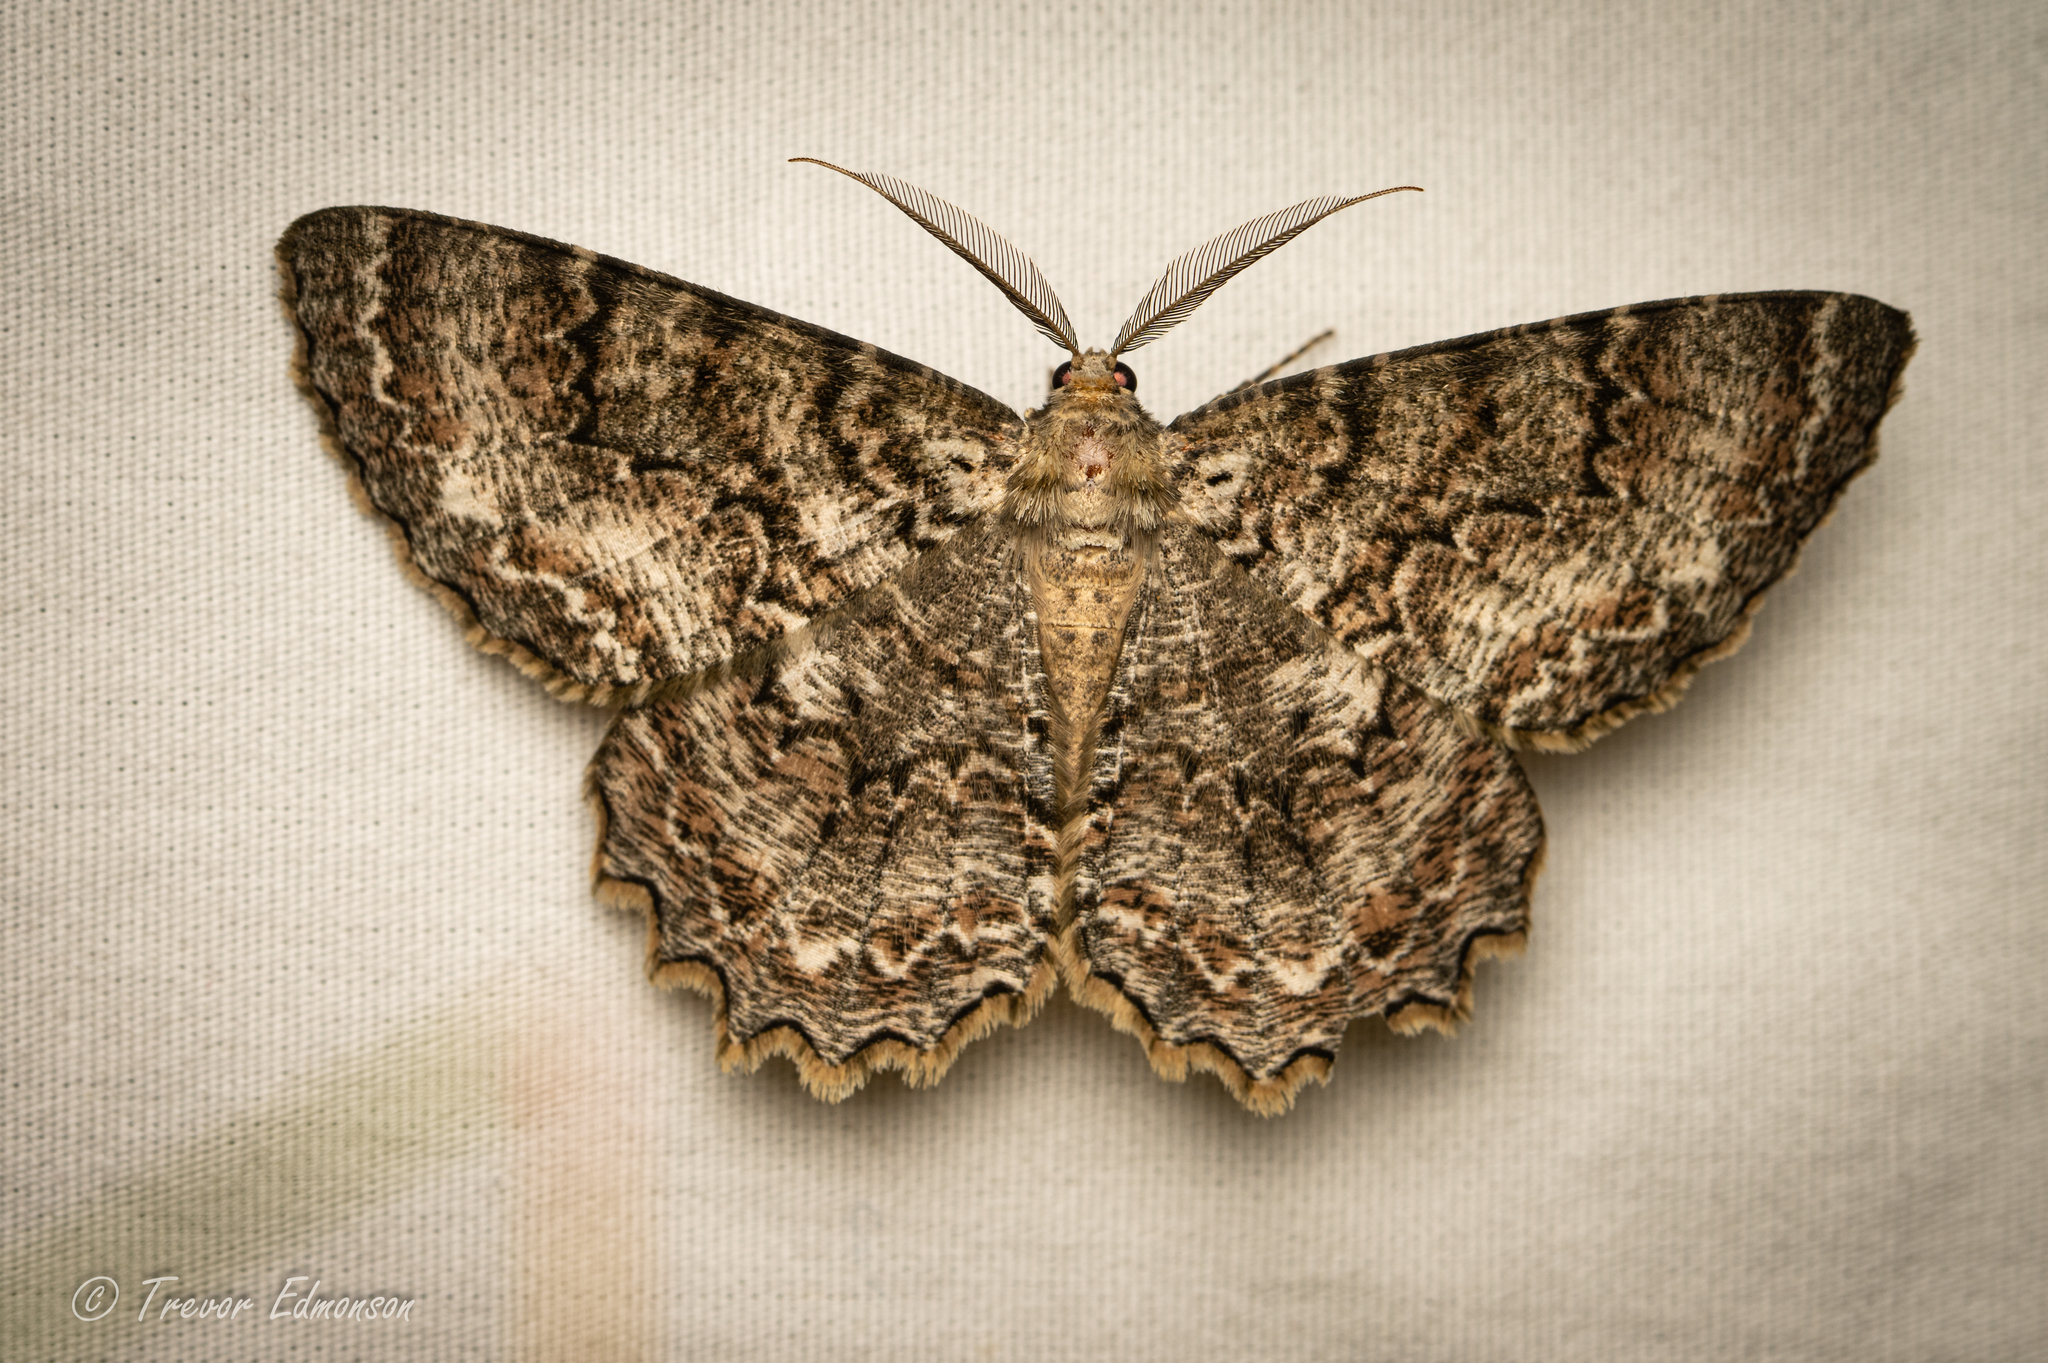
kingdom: Animalia
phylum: Arthropoda
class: Insecta
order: Lepidoptera
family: Geometridae
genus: Epimecis
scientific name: Epimecis hortaria
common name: Tulip-tree beauty
